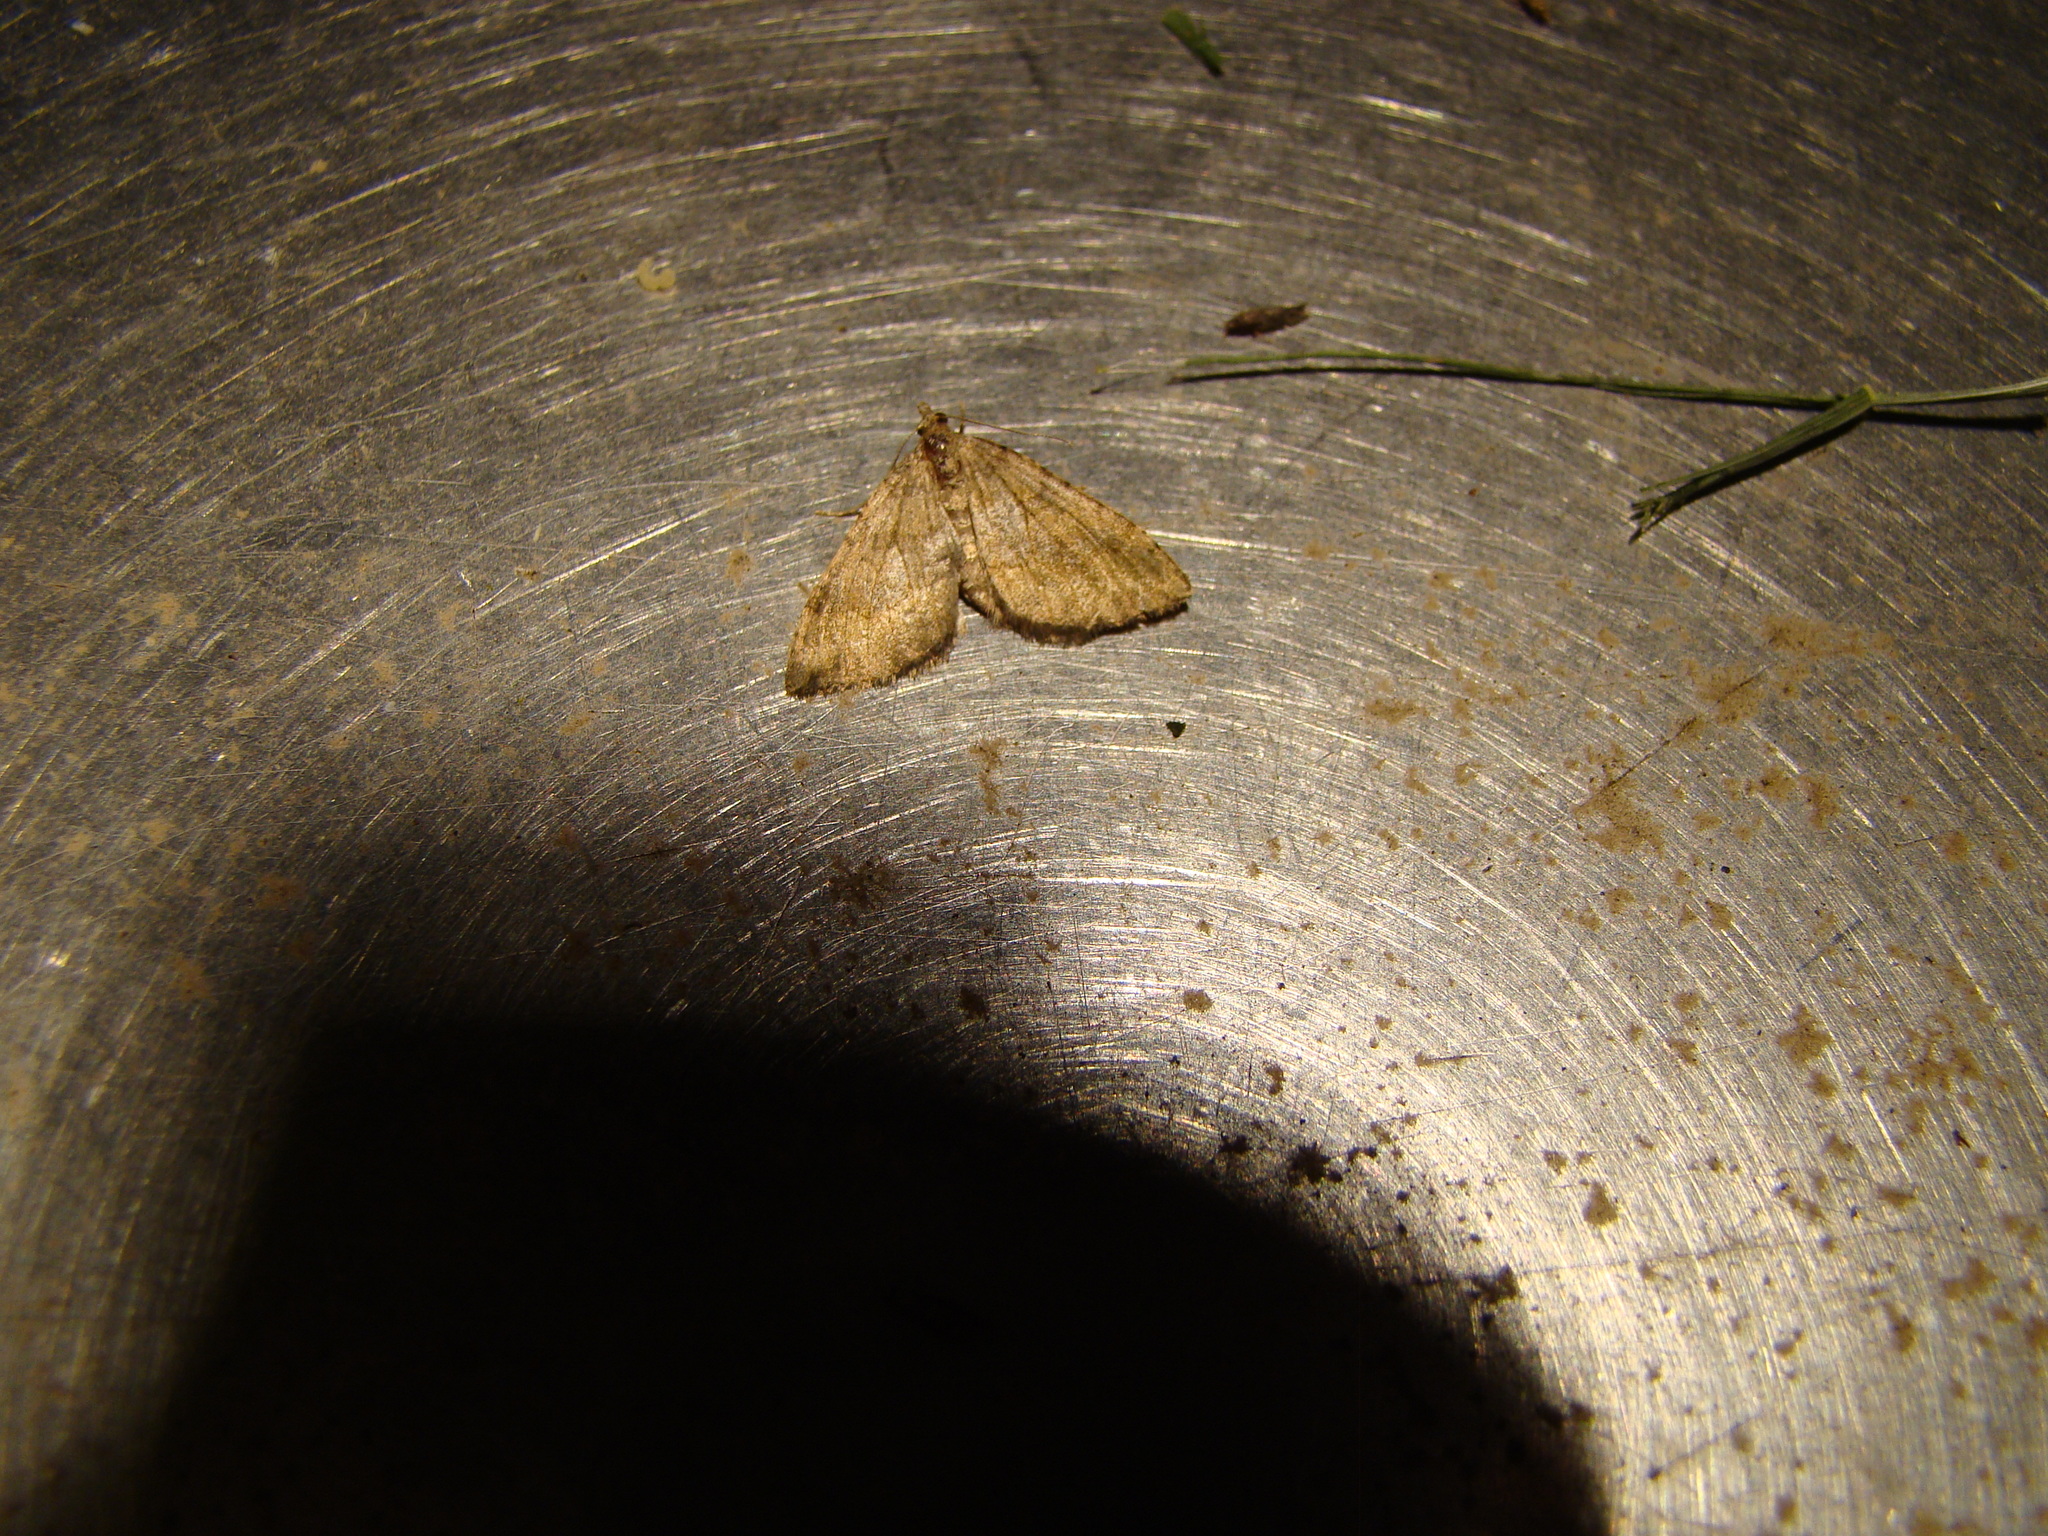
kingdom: Animalia
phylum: Arthropoda
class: Insecta
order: Lepidoptera
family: Geometridae
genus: Epyaxa
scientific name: Epyaxa rosearia
